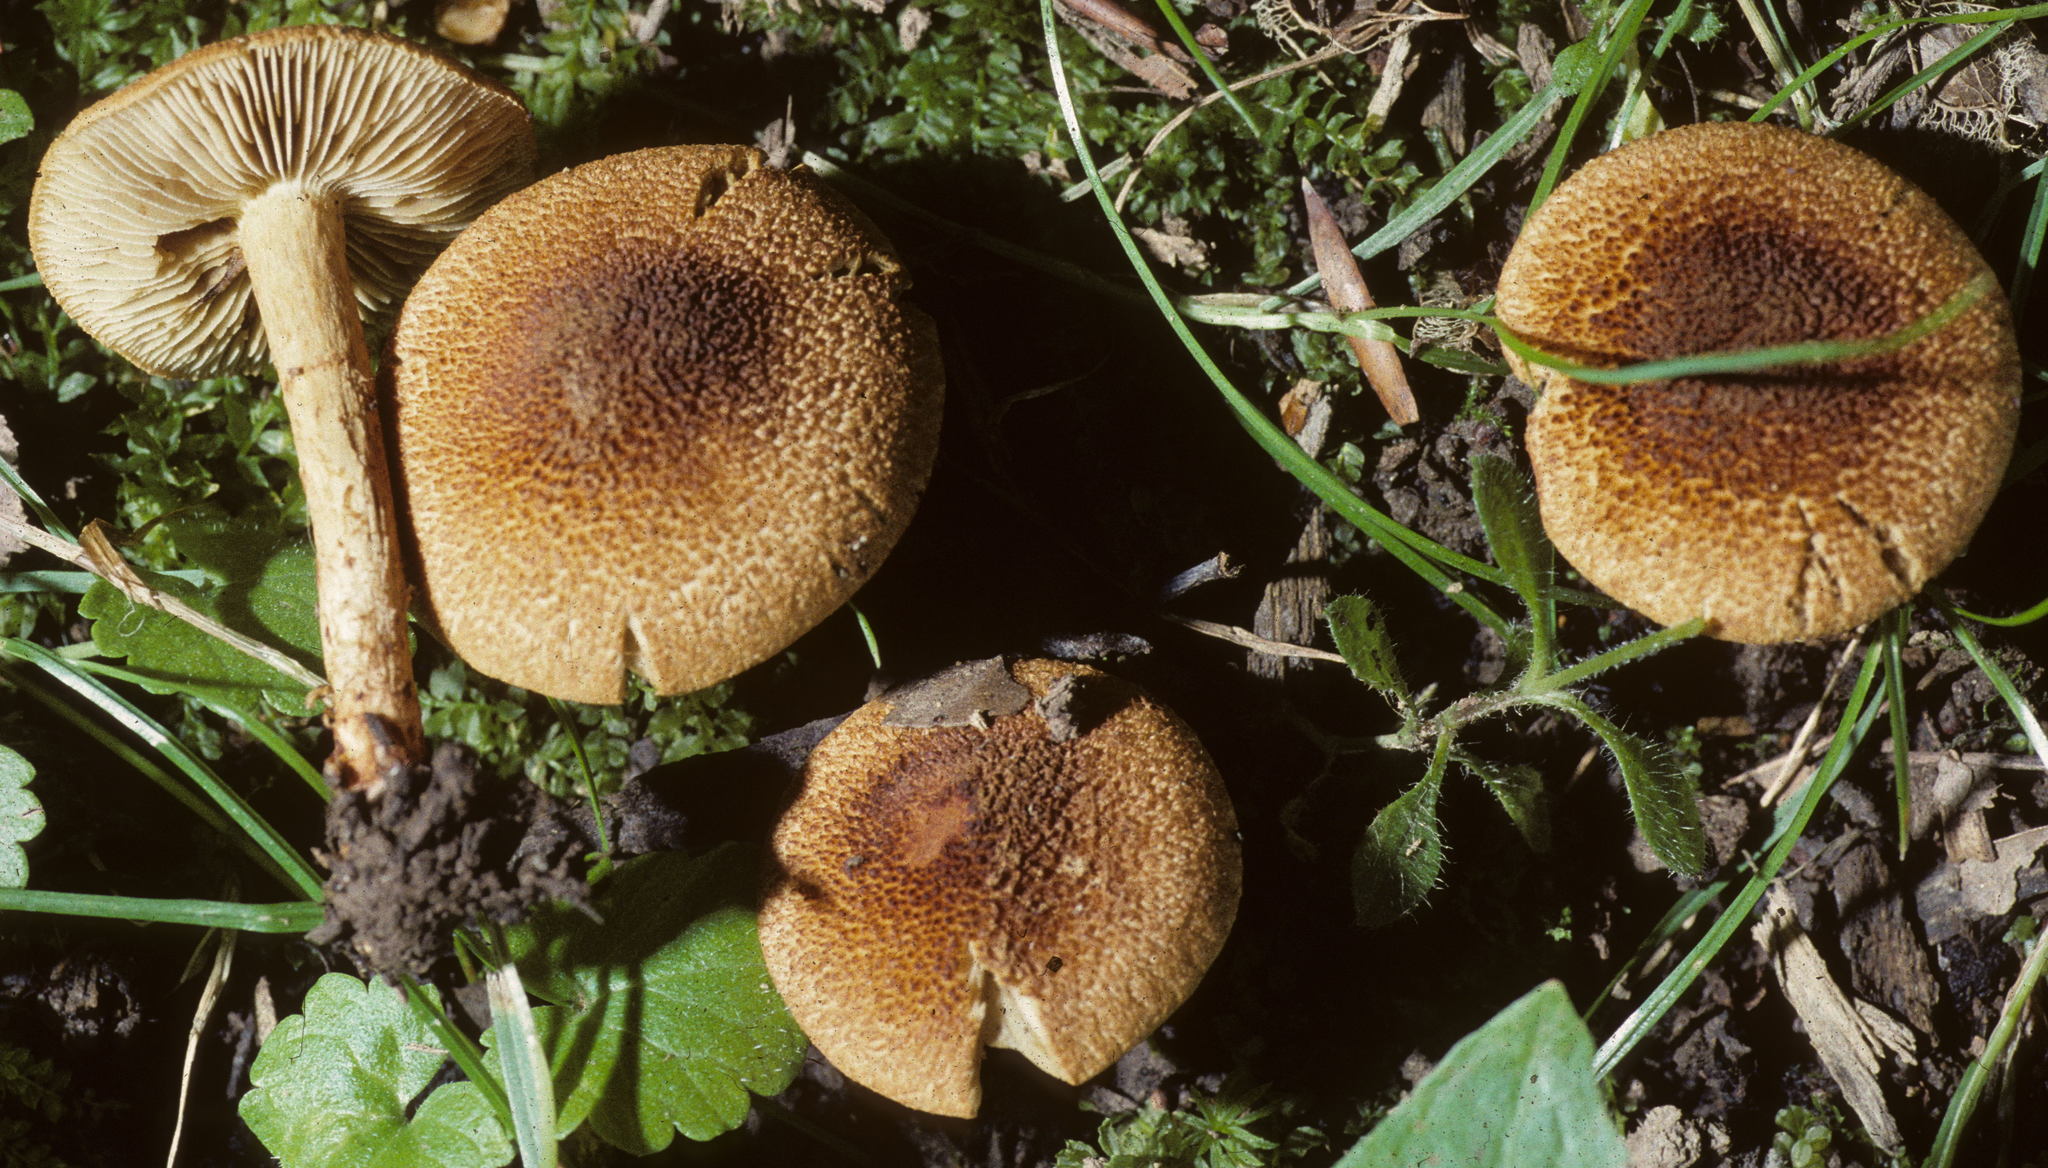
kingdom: Fungi
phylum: Basidiomycota
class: Agaricomycetes
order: Agaricales
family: Inocybaceae
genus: Mallocybe
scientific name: Mallocybe unicolor
